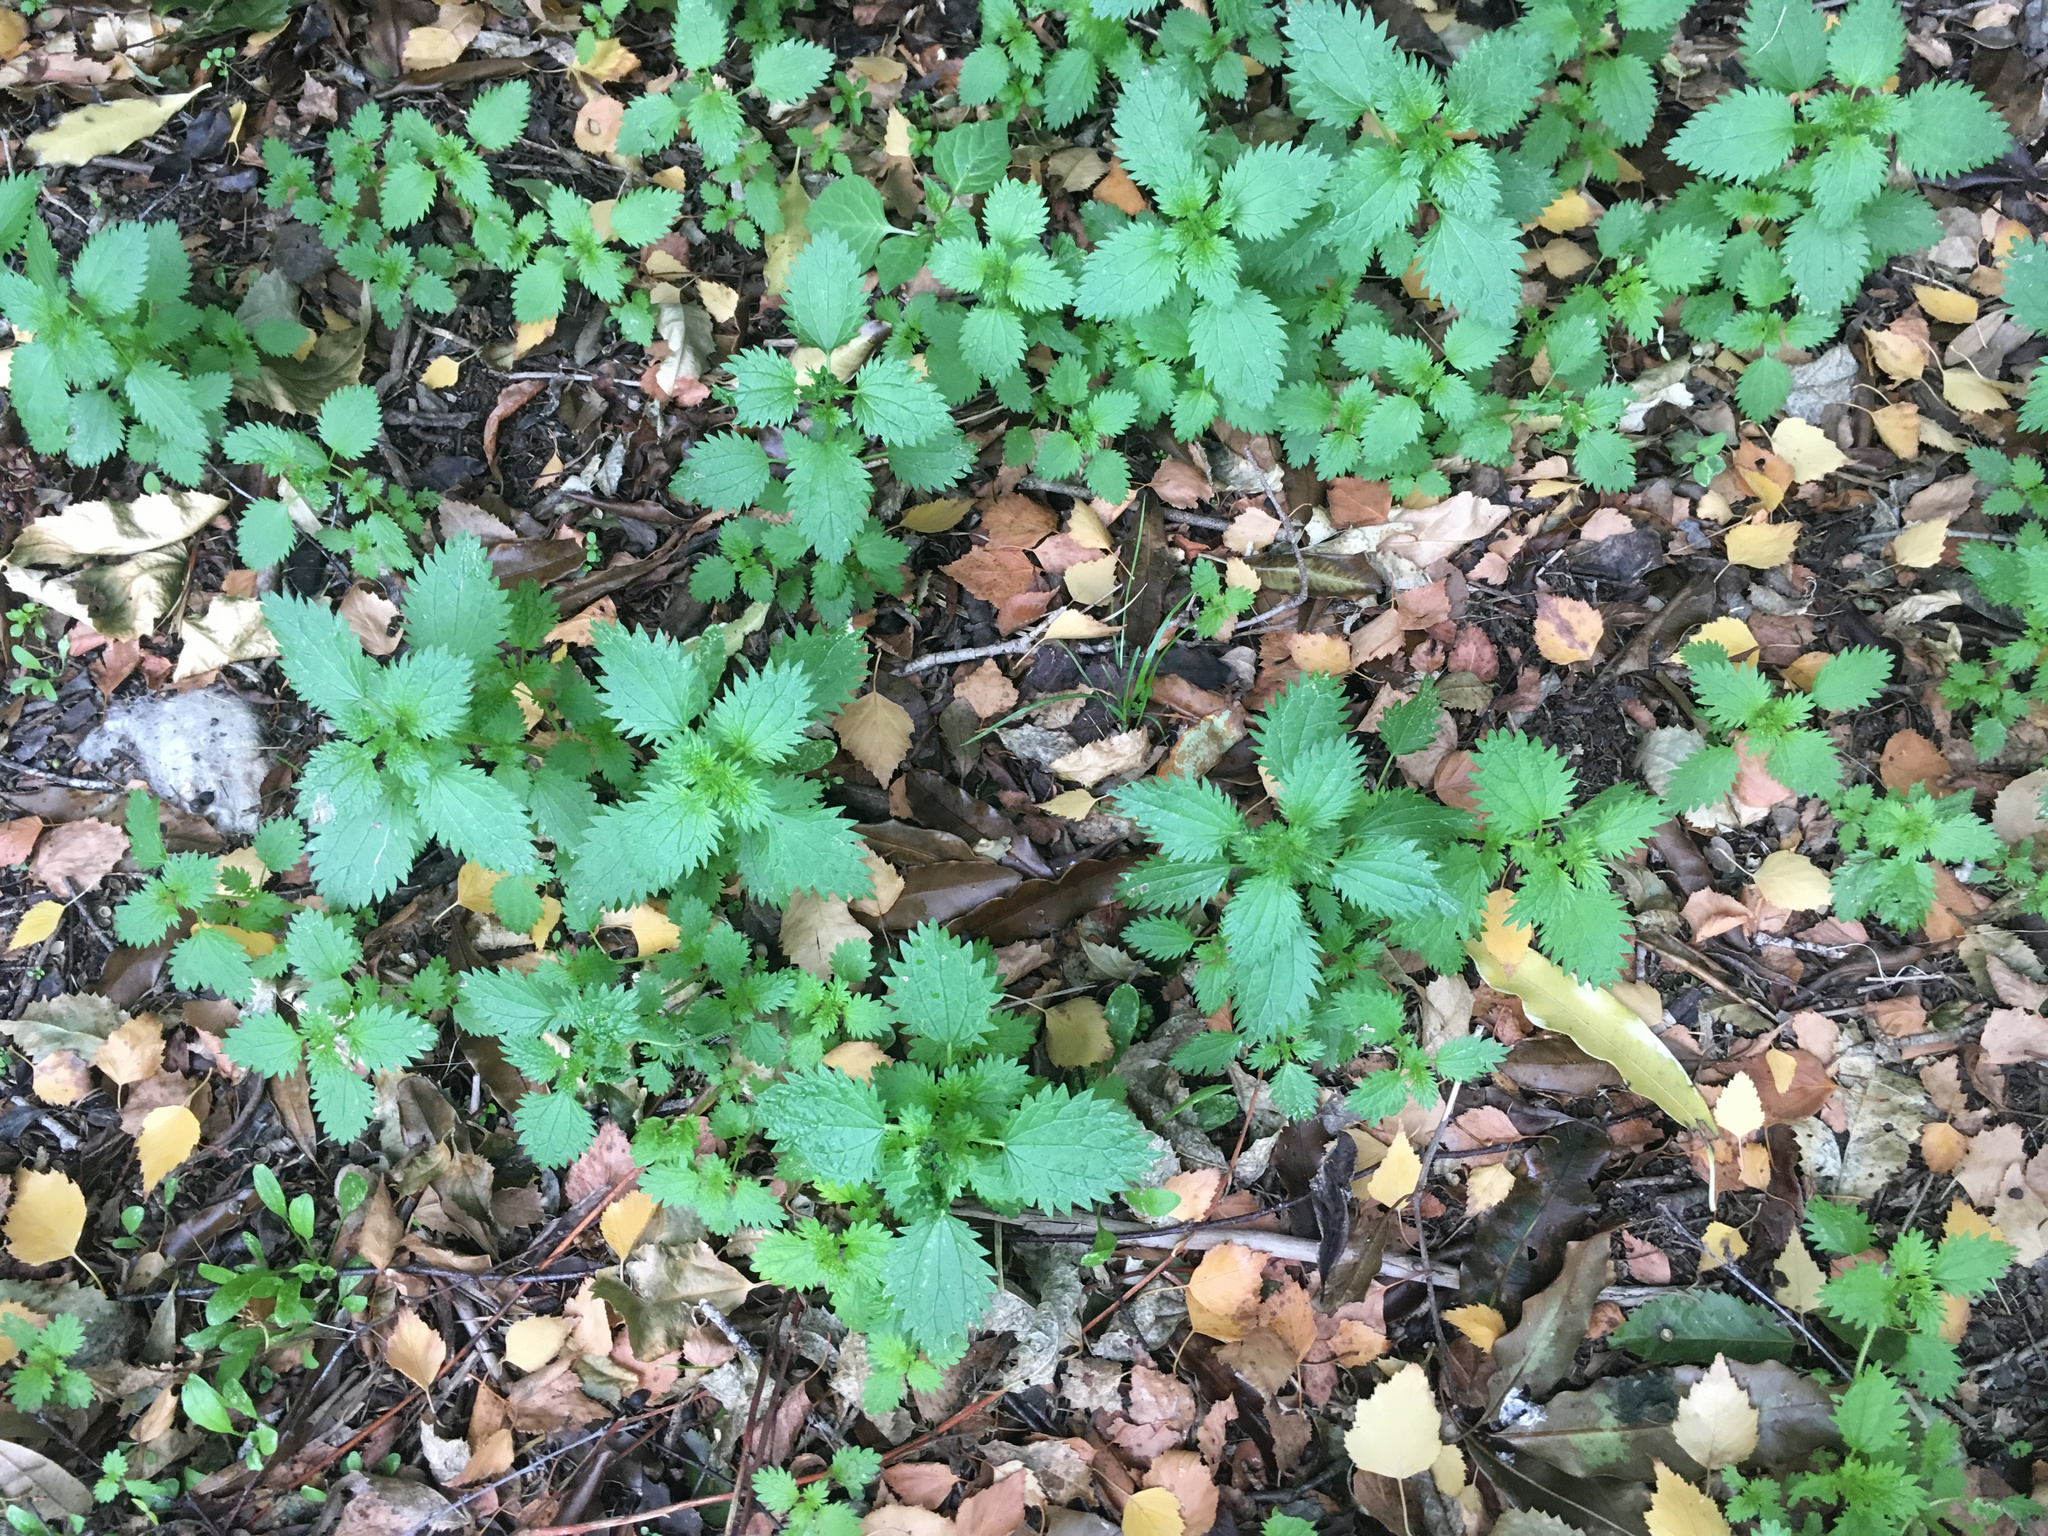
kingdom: Plantae
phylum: Tracheophyta
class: Magnoliopsida
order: Rosales
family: Urticaceae
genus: Urtica
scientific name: Urtica urens
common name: Dwarf nettle
